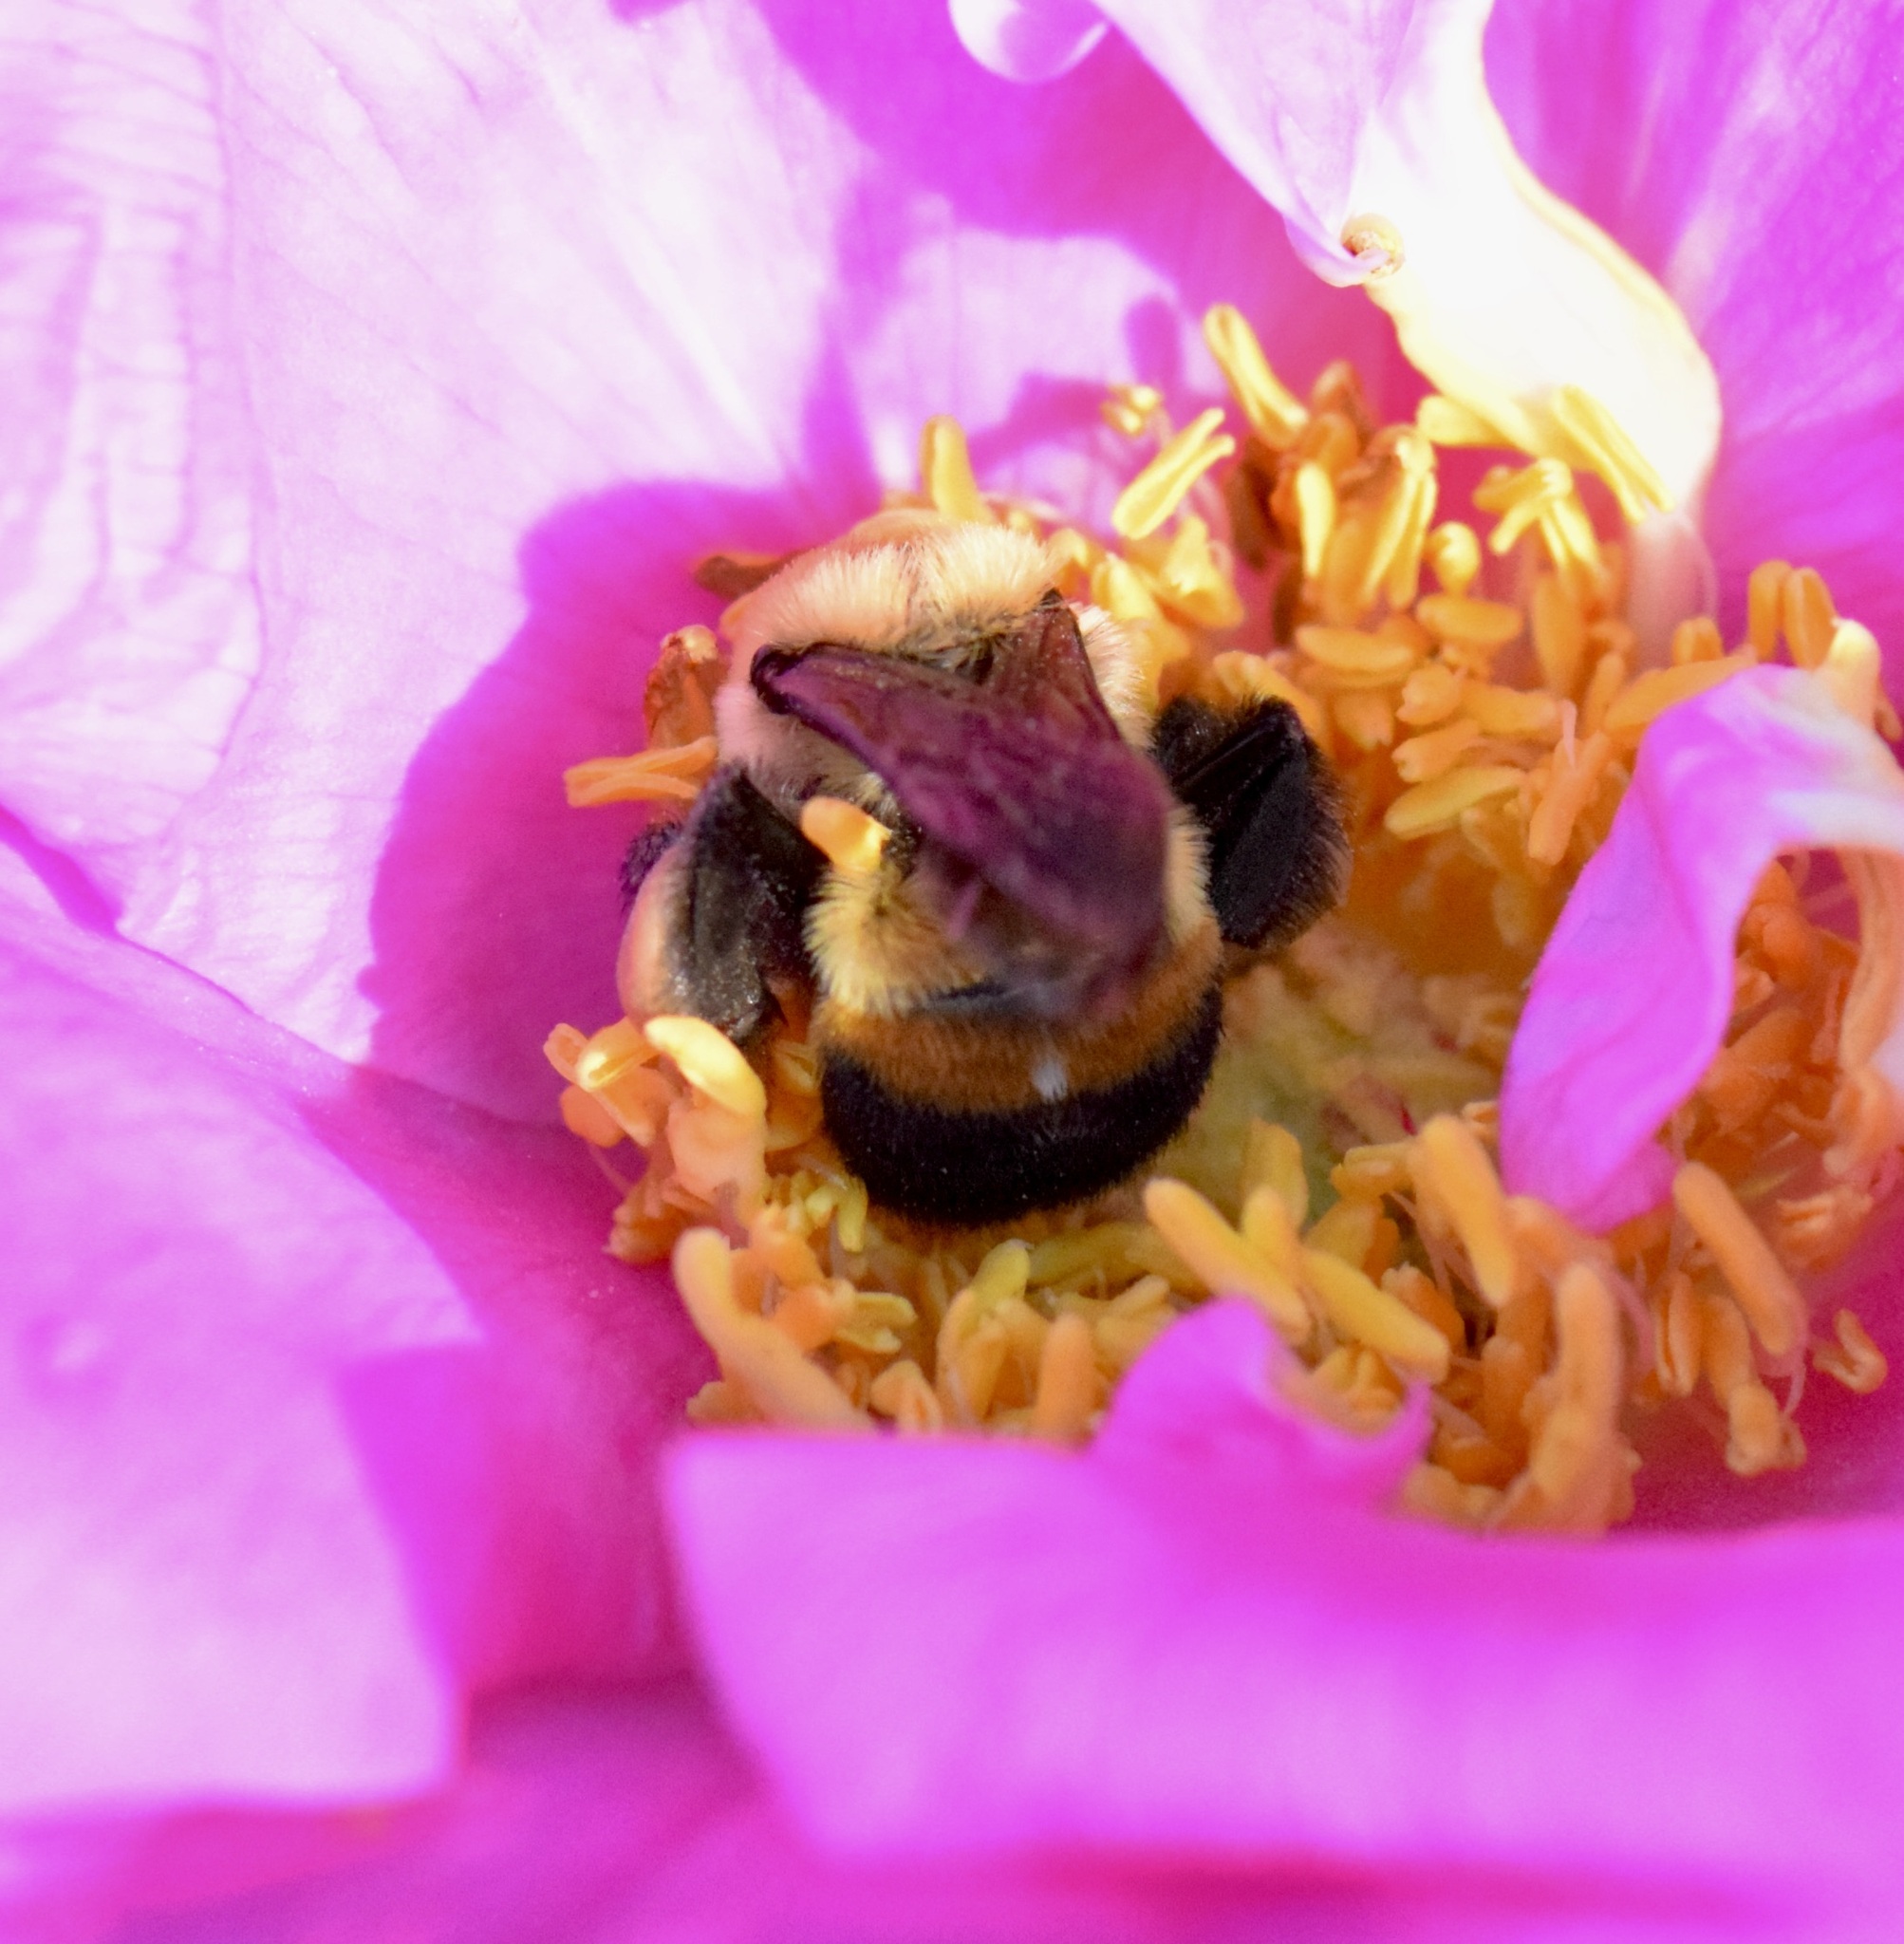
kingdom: Animalia
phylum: Arthropoda
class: Insecta
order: Hymenoptera
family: Apidae
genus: Bombus
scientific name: Bombus griseocollis
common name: Brown-belted bumble bee
